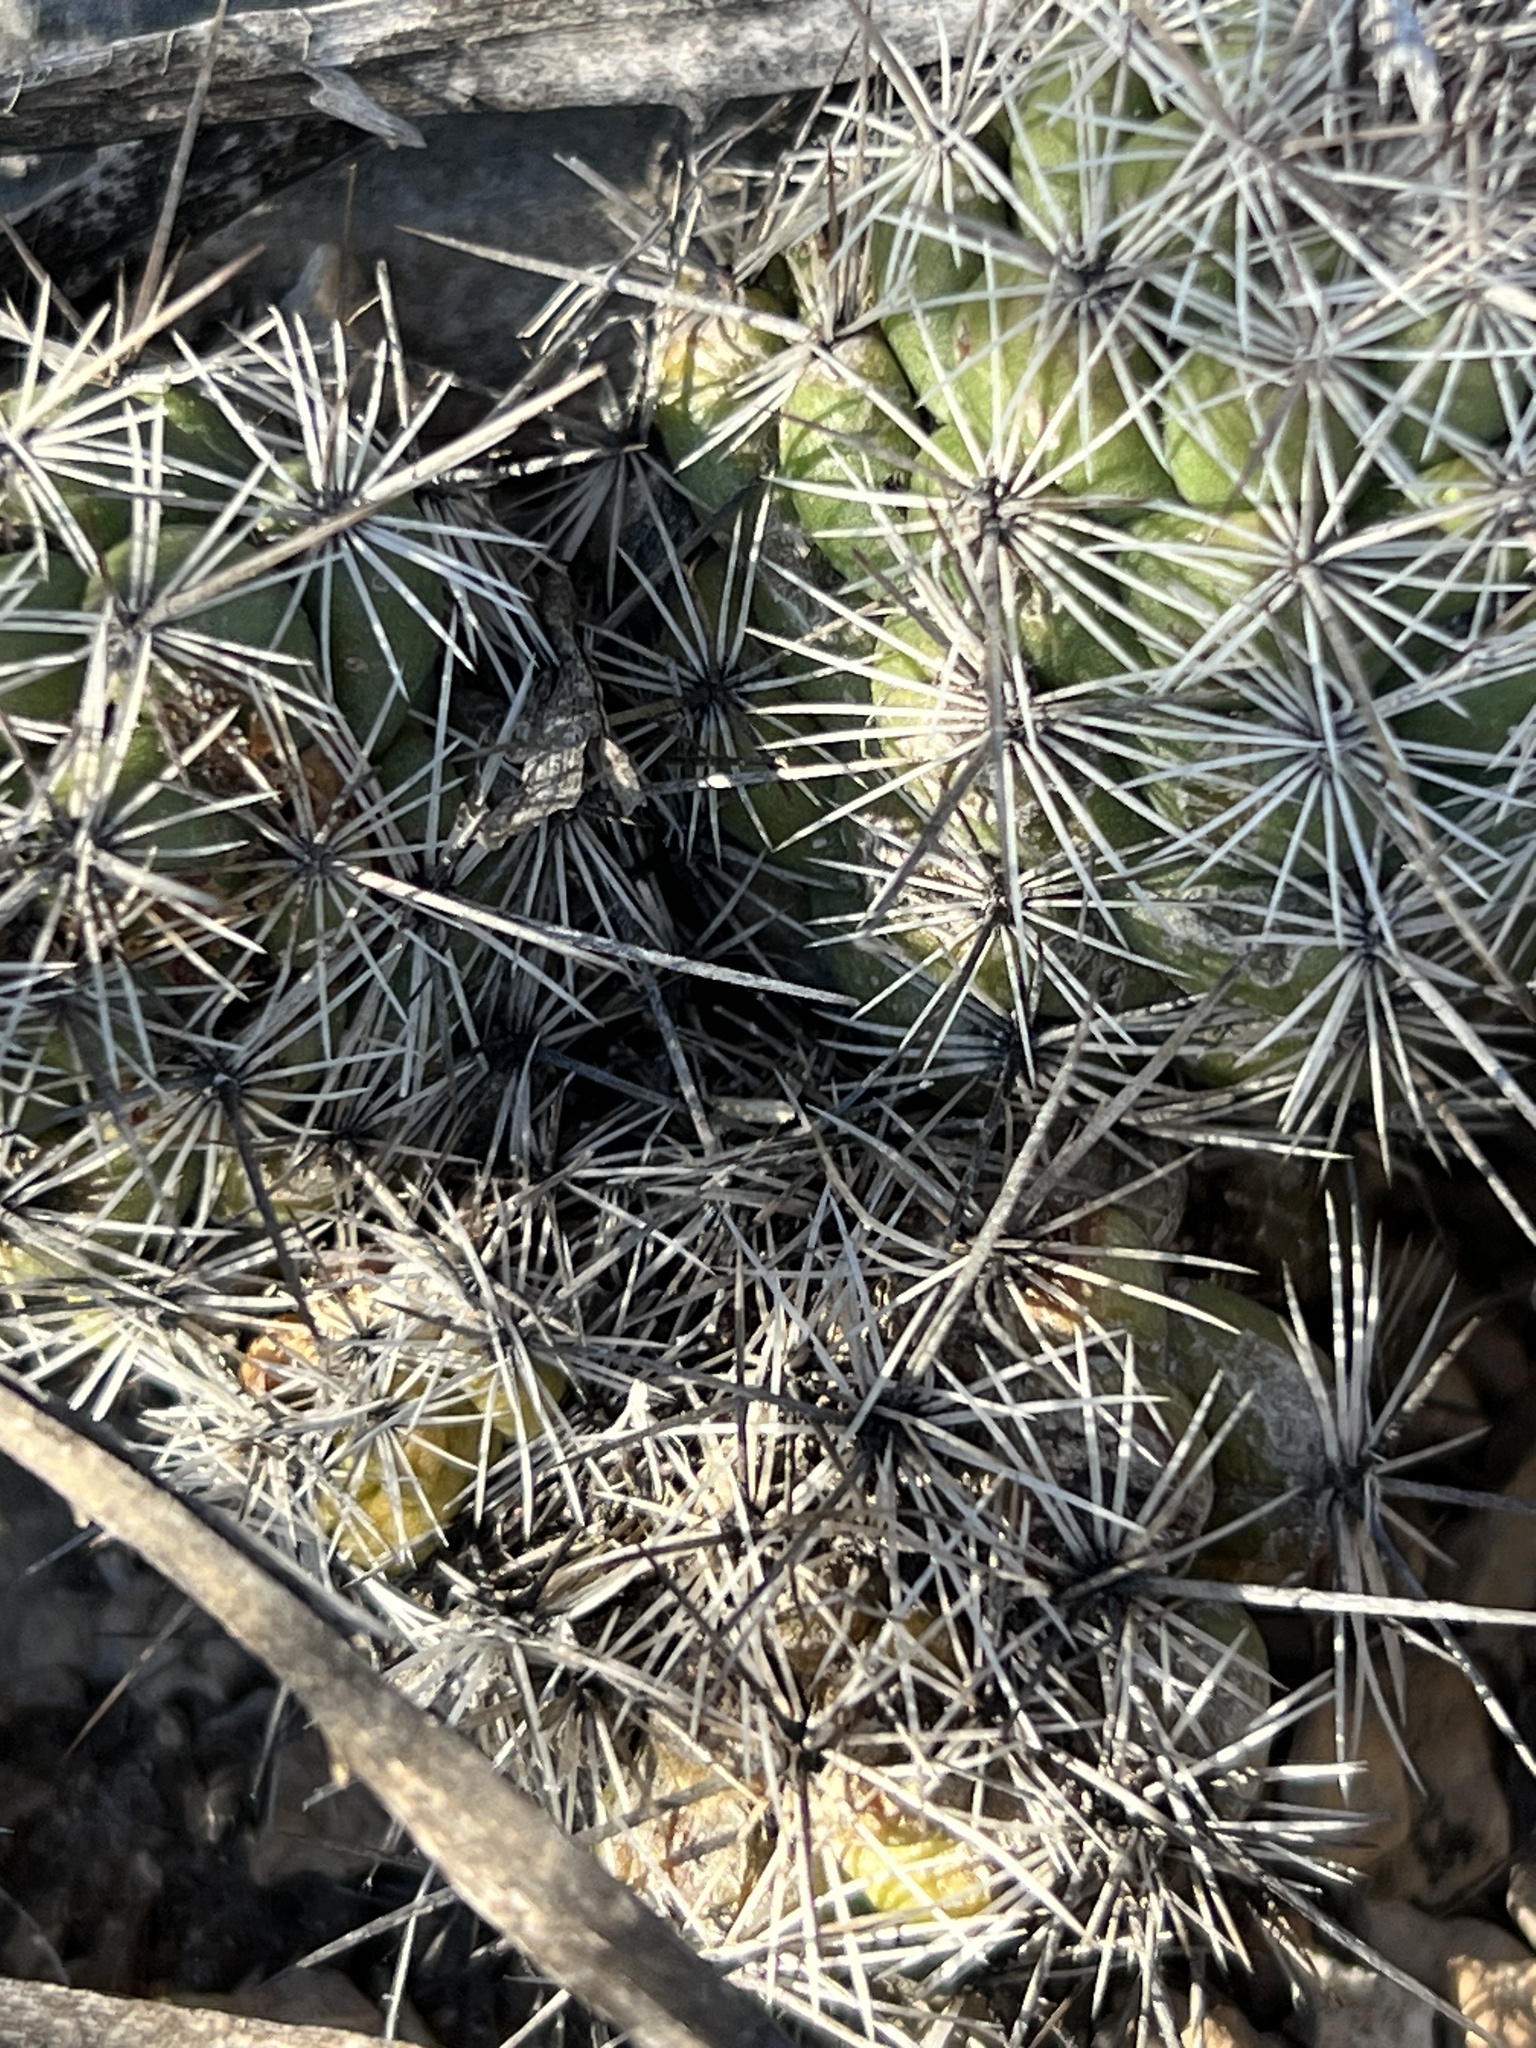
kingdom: Plantae
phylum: Tracheophyta
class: Magnoliopsida
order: Caryophyllales
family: Cactaceae
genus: Cochemiea
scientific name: Cochemiea conoidea
